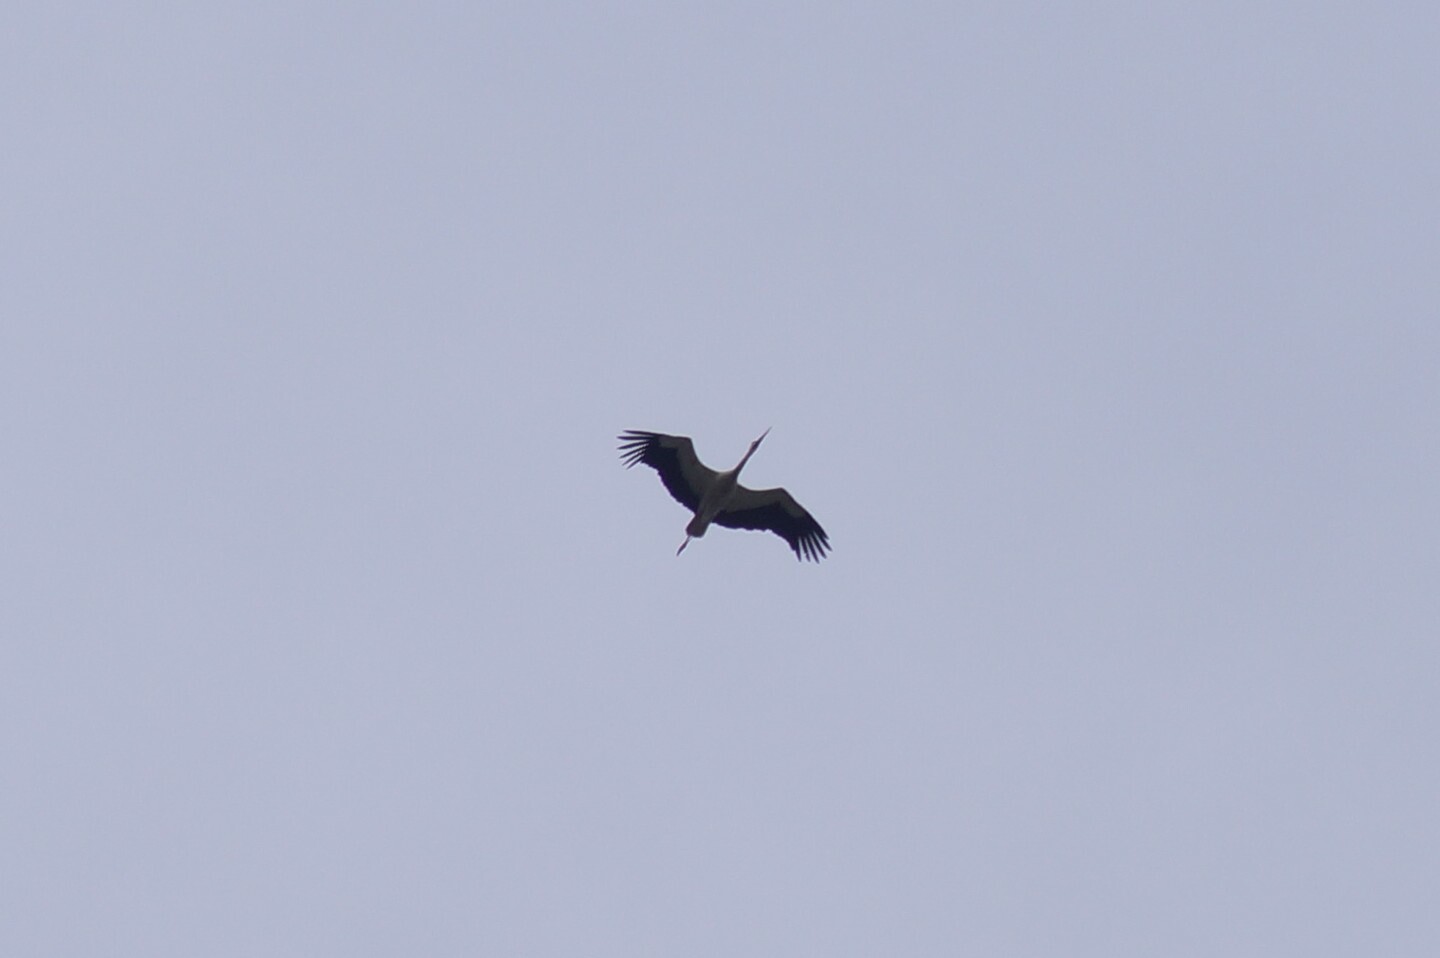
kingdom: Animalia
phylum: Chordata
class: Aves
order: Ciconiiformes
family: Ciconiidae
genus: Ciconia
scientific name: Ciconia ciconia
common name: White stork
